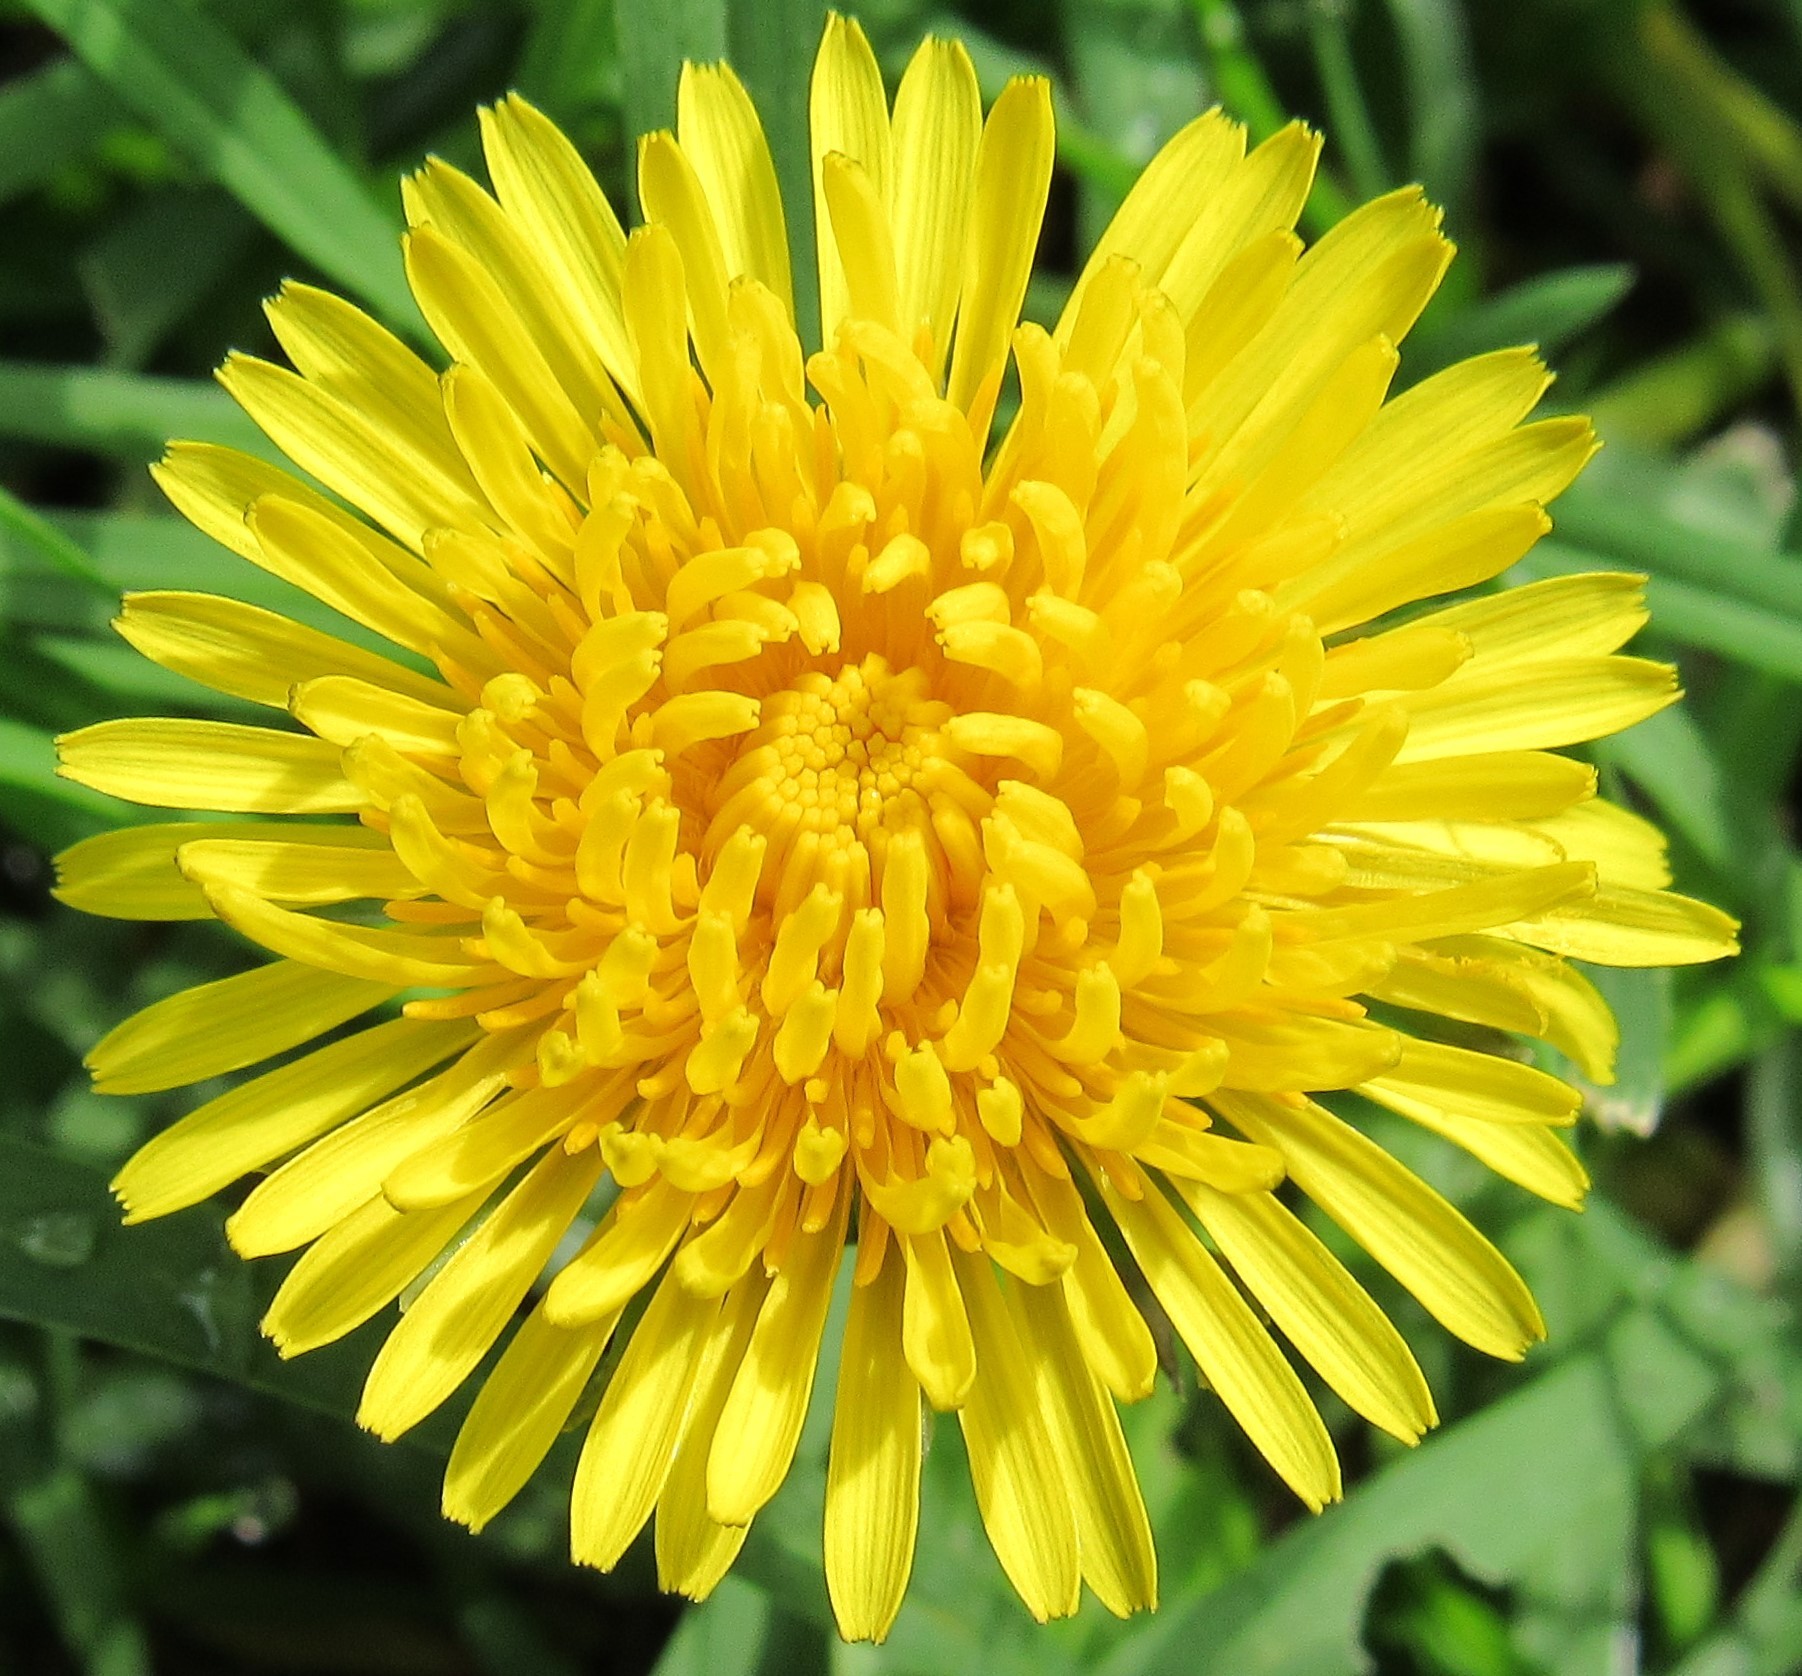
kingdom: Plantae
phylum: Tracheophyta
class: Magnoliopsida
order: Asterales
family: Asteraceae
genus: Taraxacum
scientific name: Taraxacum officinale
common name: Common dandelion
